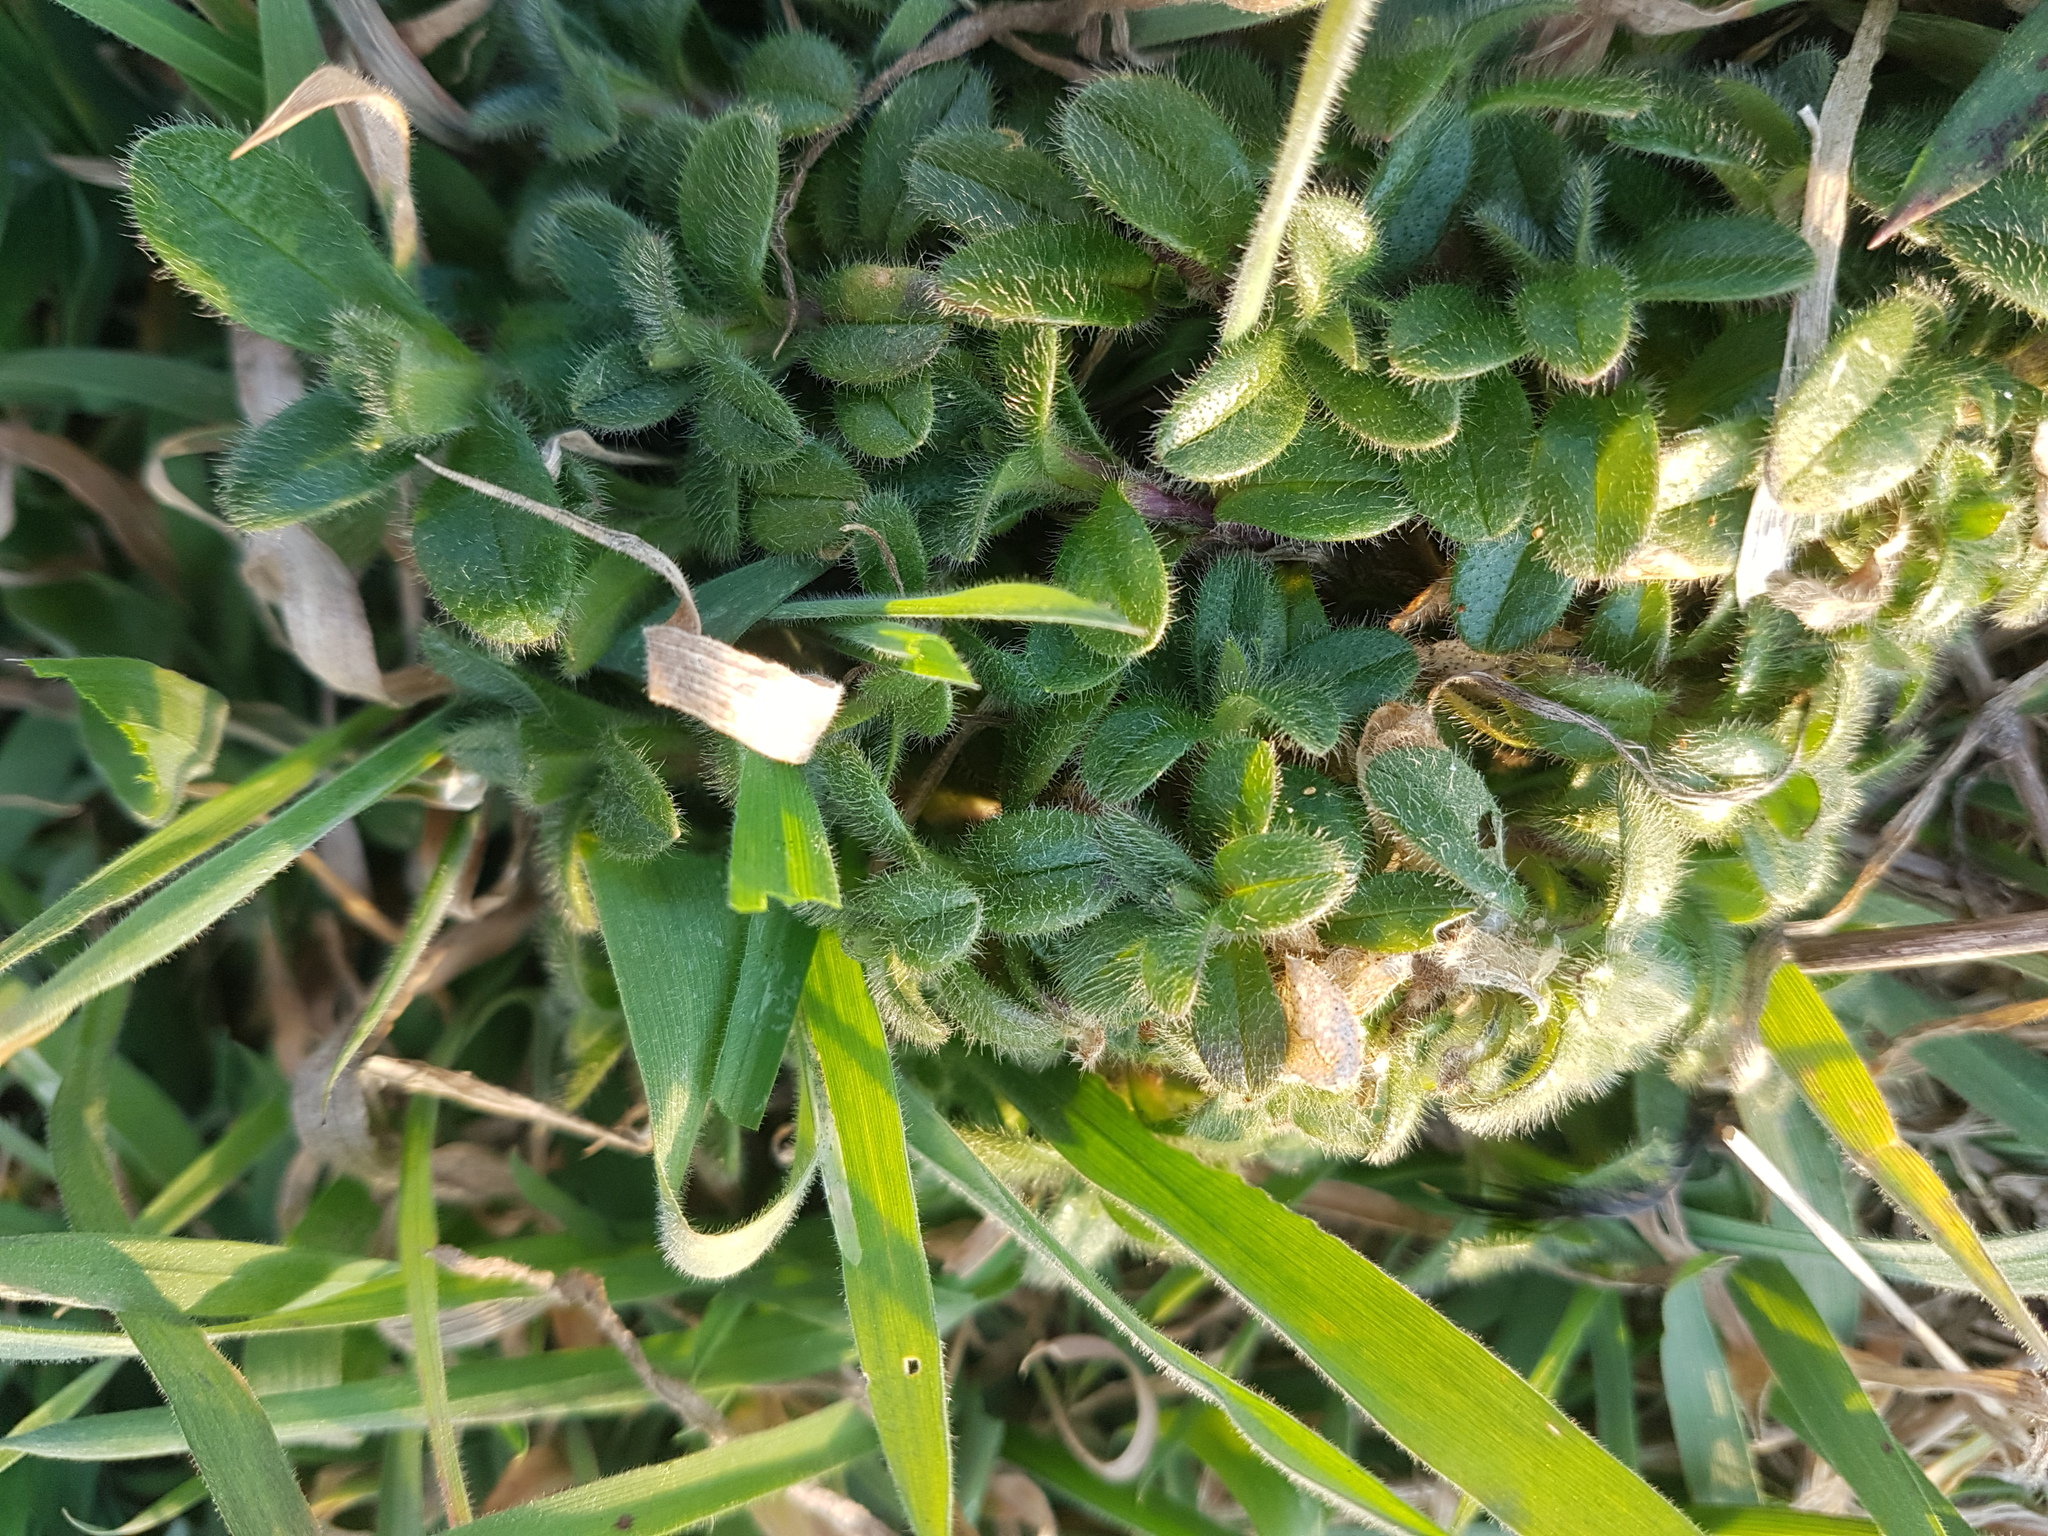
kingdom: Plantae
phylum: Tracheophyta
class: Magnoliopsida
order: Caryophyllales
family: Caryophyllaceae
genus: Cerastium
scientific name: Cerastium fontanum
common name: Common mouse-ear
